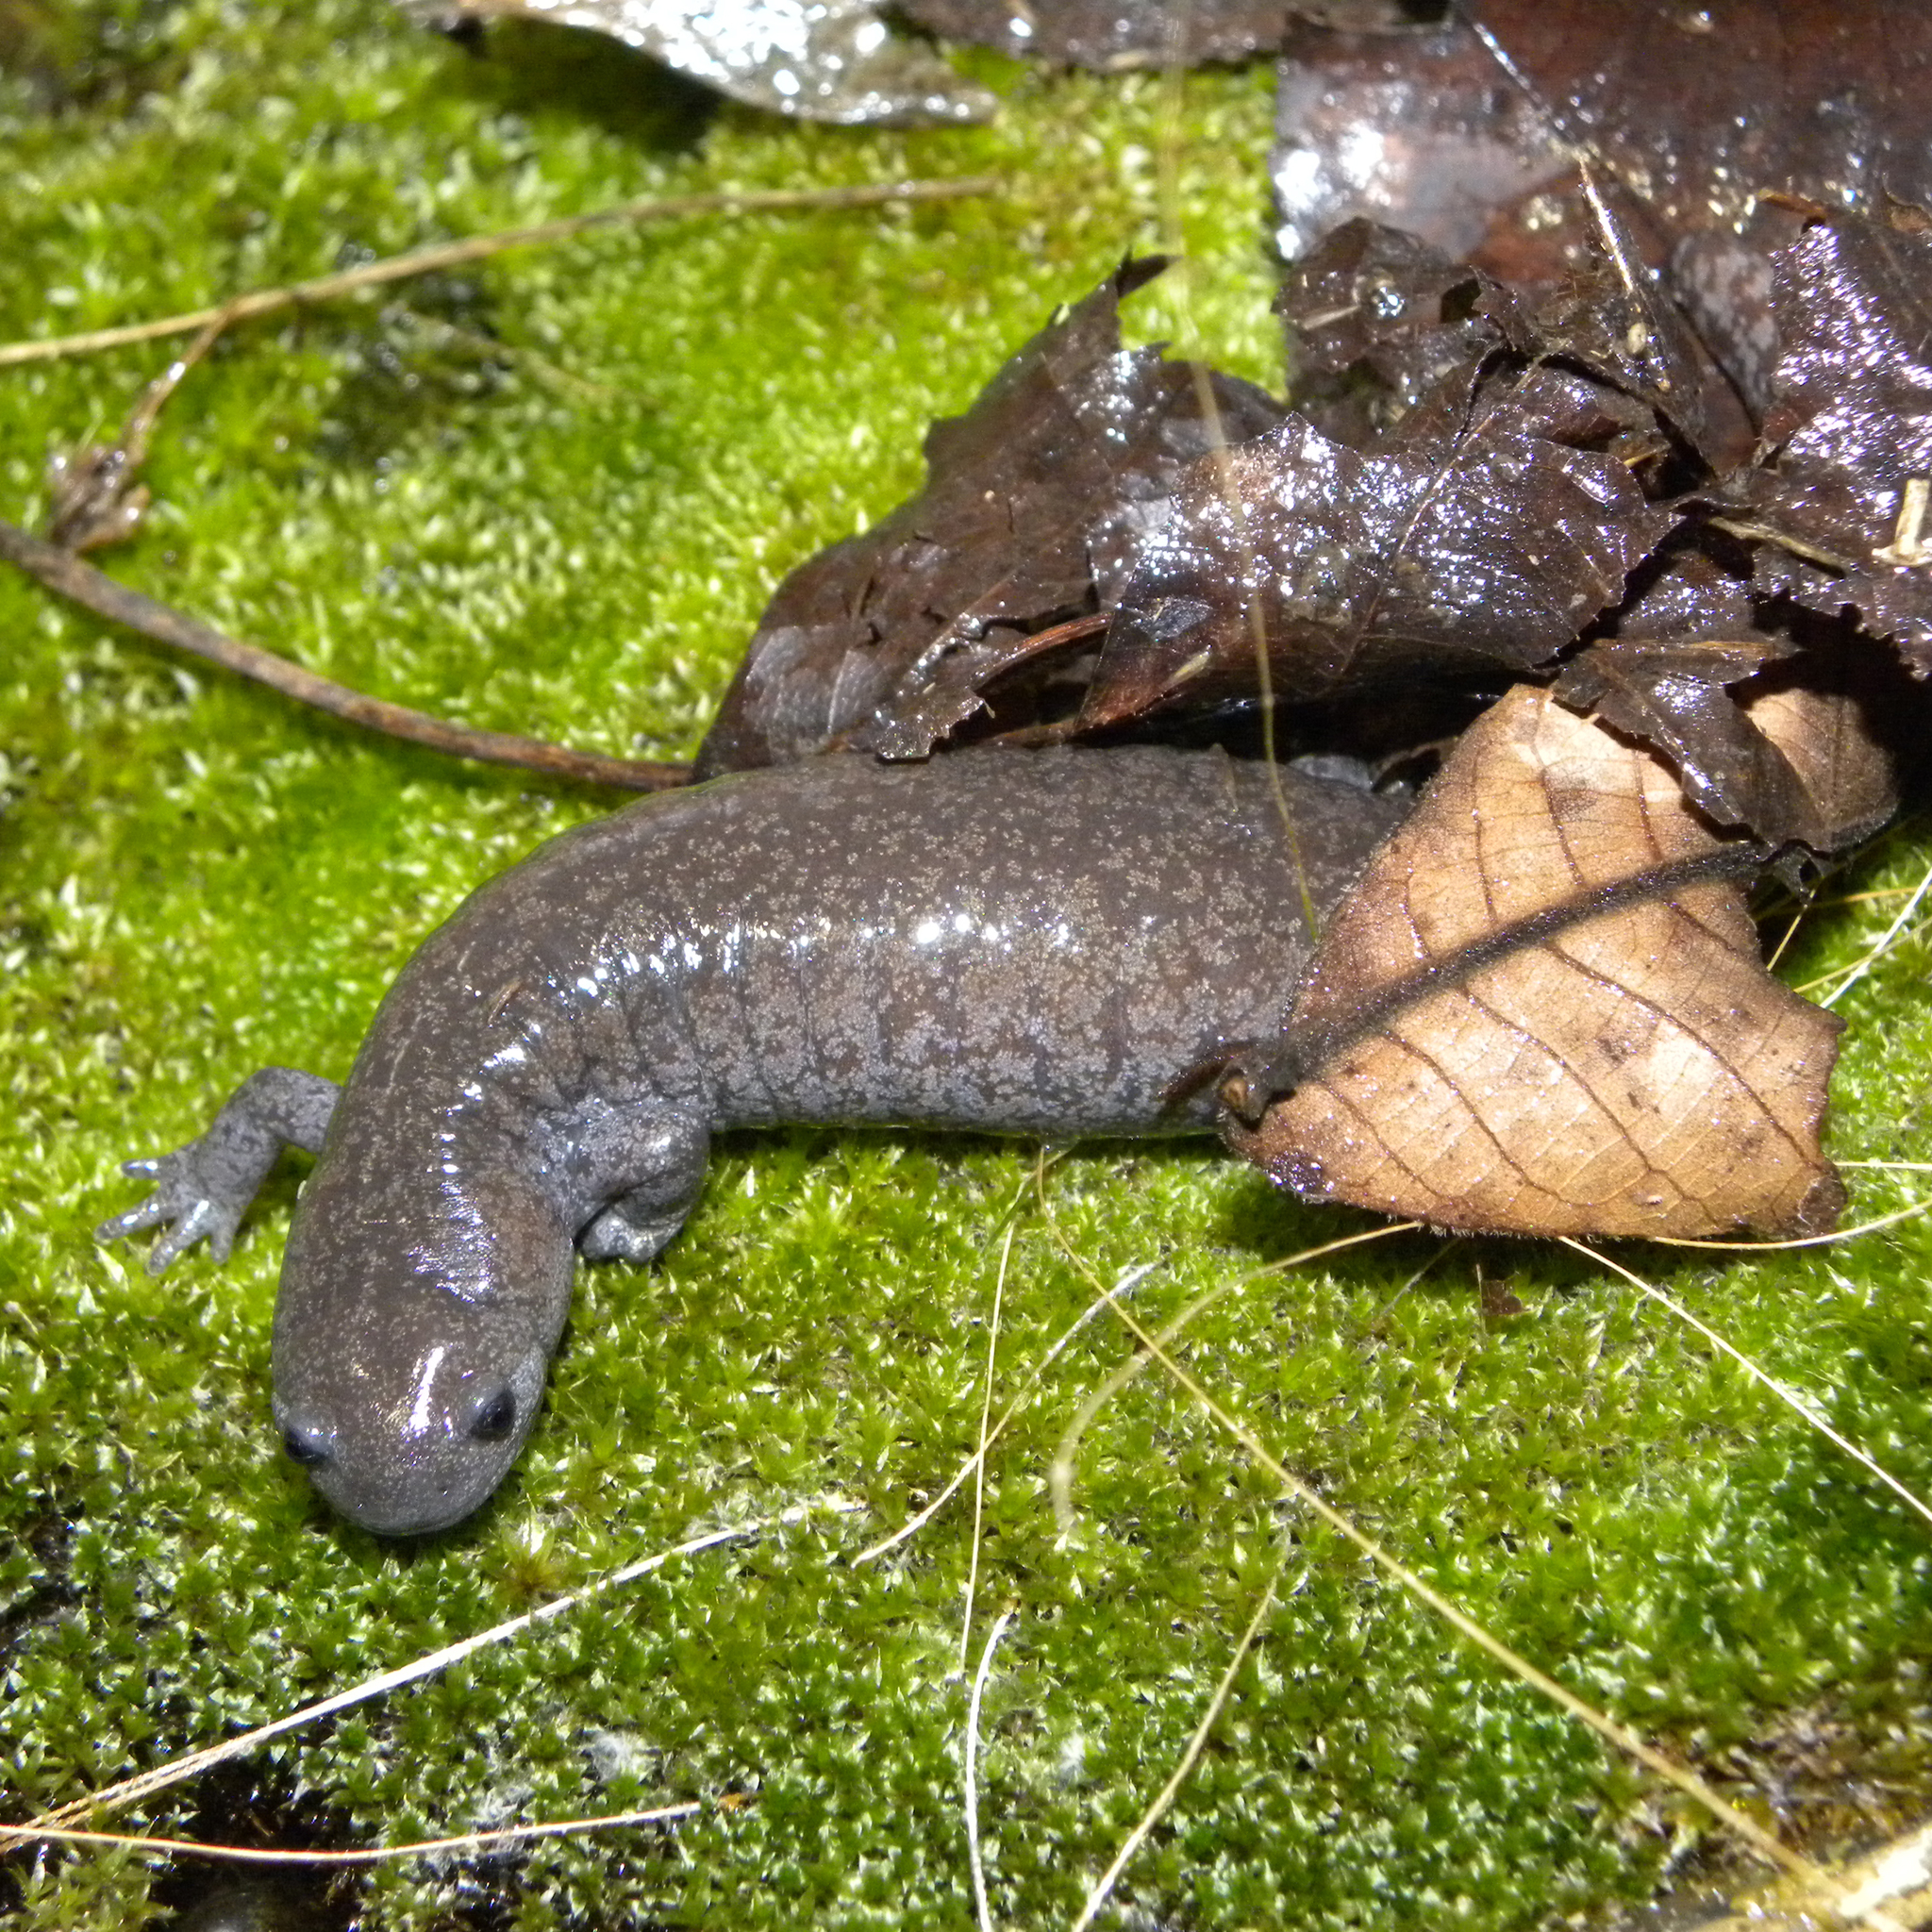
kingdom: Animalia
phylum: Chordata
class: Amphibia
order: Caudata
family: Ambystomatidae
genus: Ambystoma
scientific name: Ambystoma barbouri
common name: Streamside salamander
